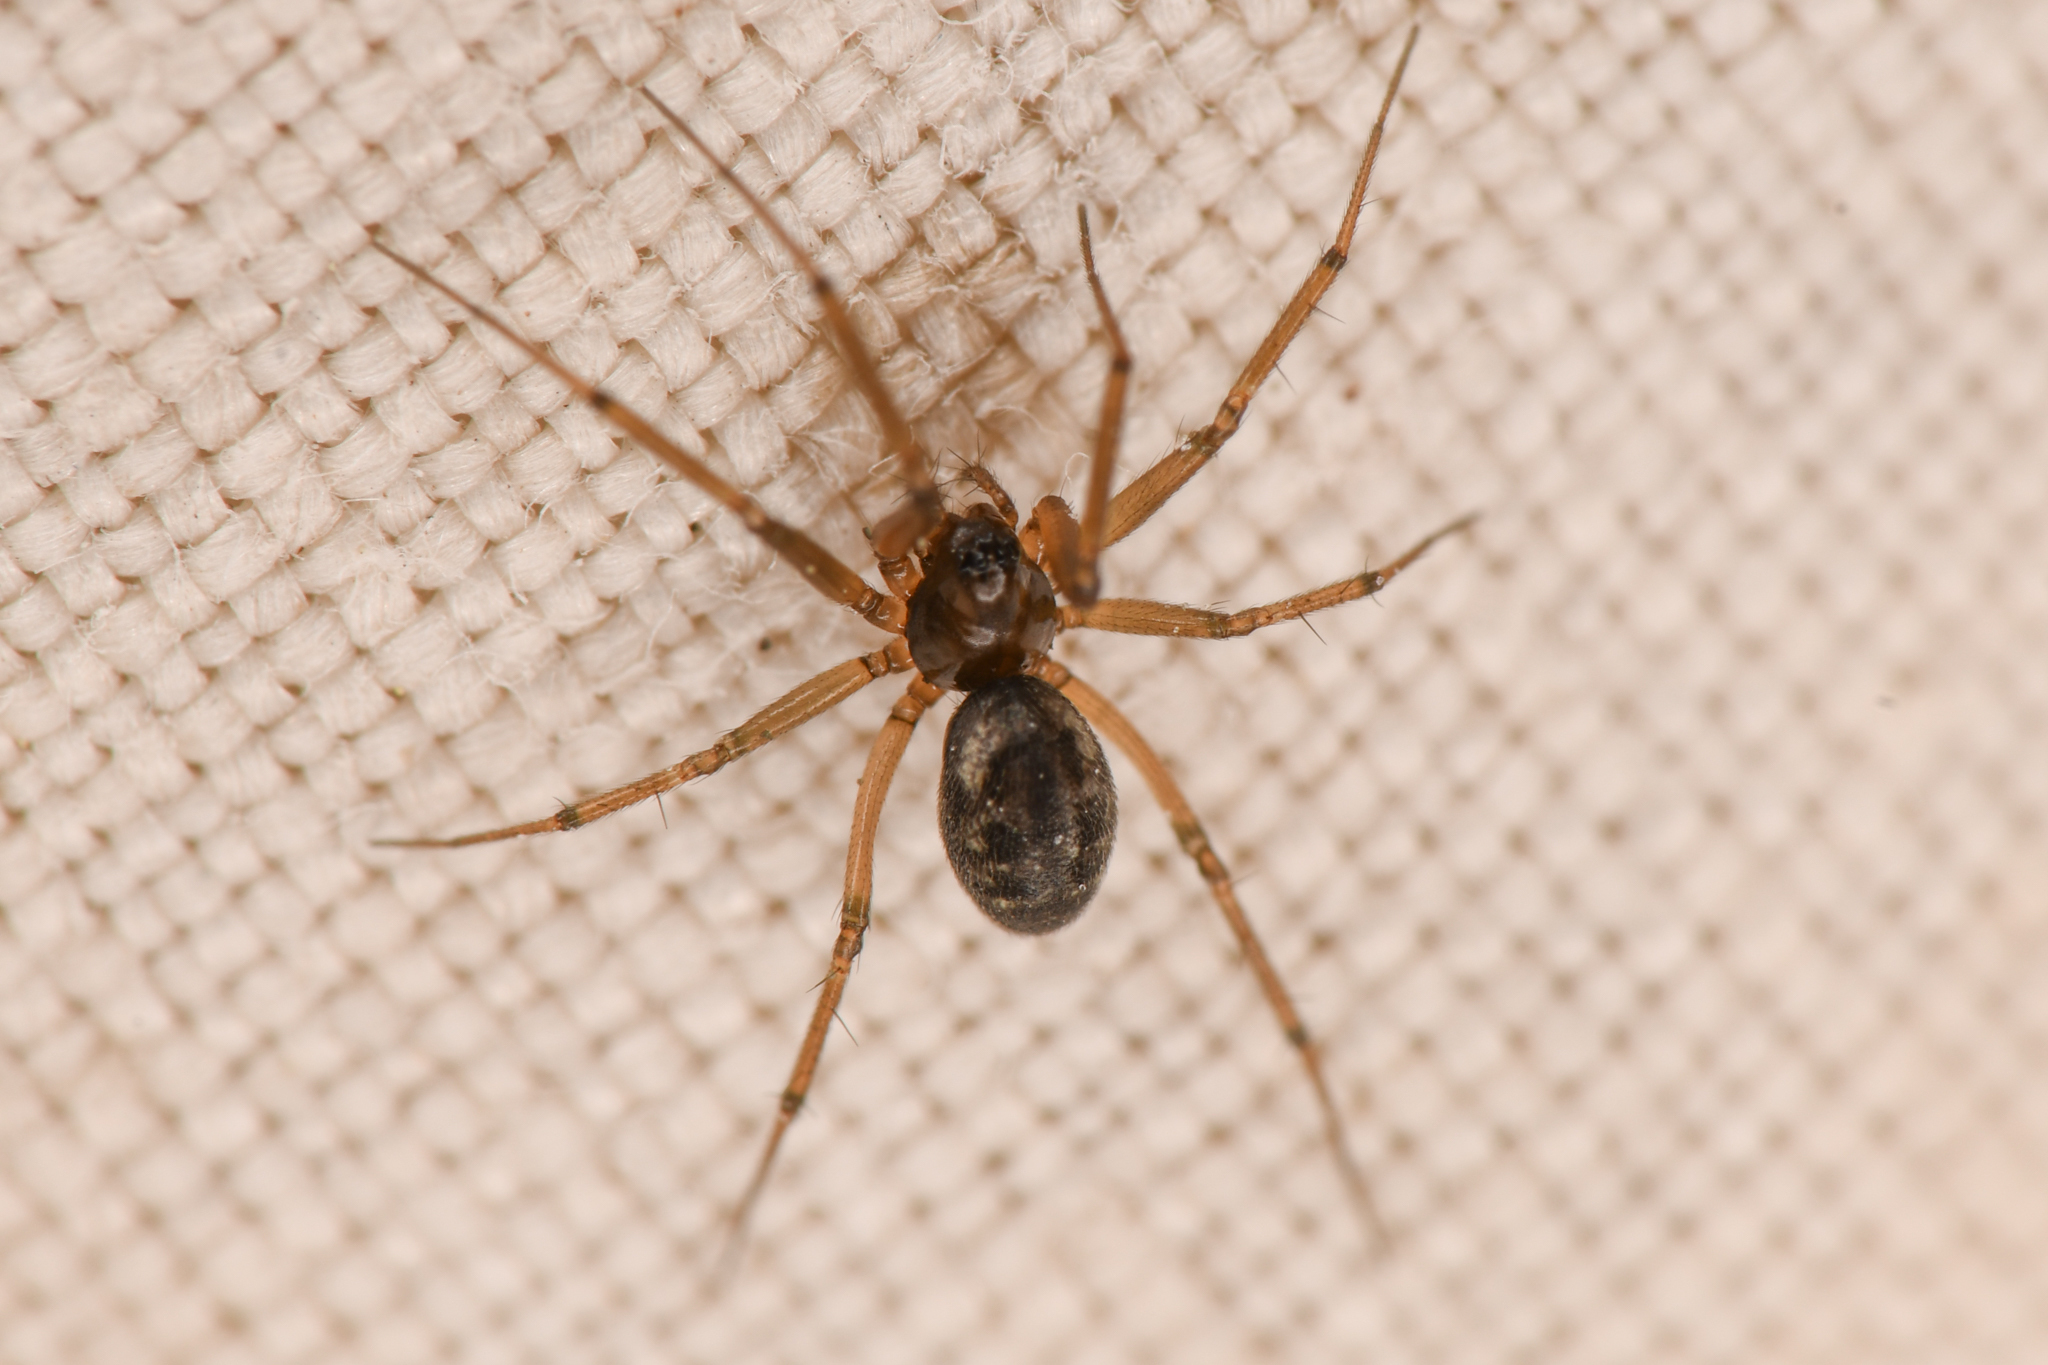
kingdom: Animalia
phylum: Arthropoda
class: Arachnida
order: Araneae
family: Linyphiidae
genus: Lepthyphantes
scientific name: Lepthyphantes alpinus
